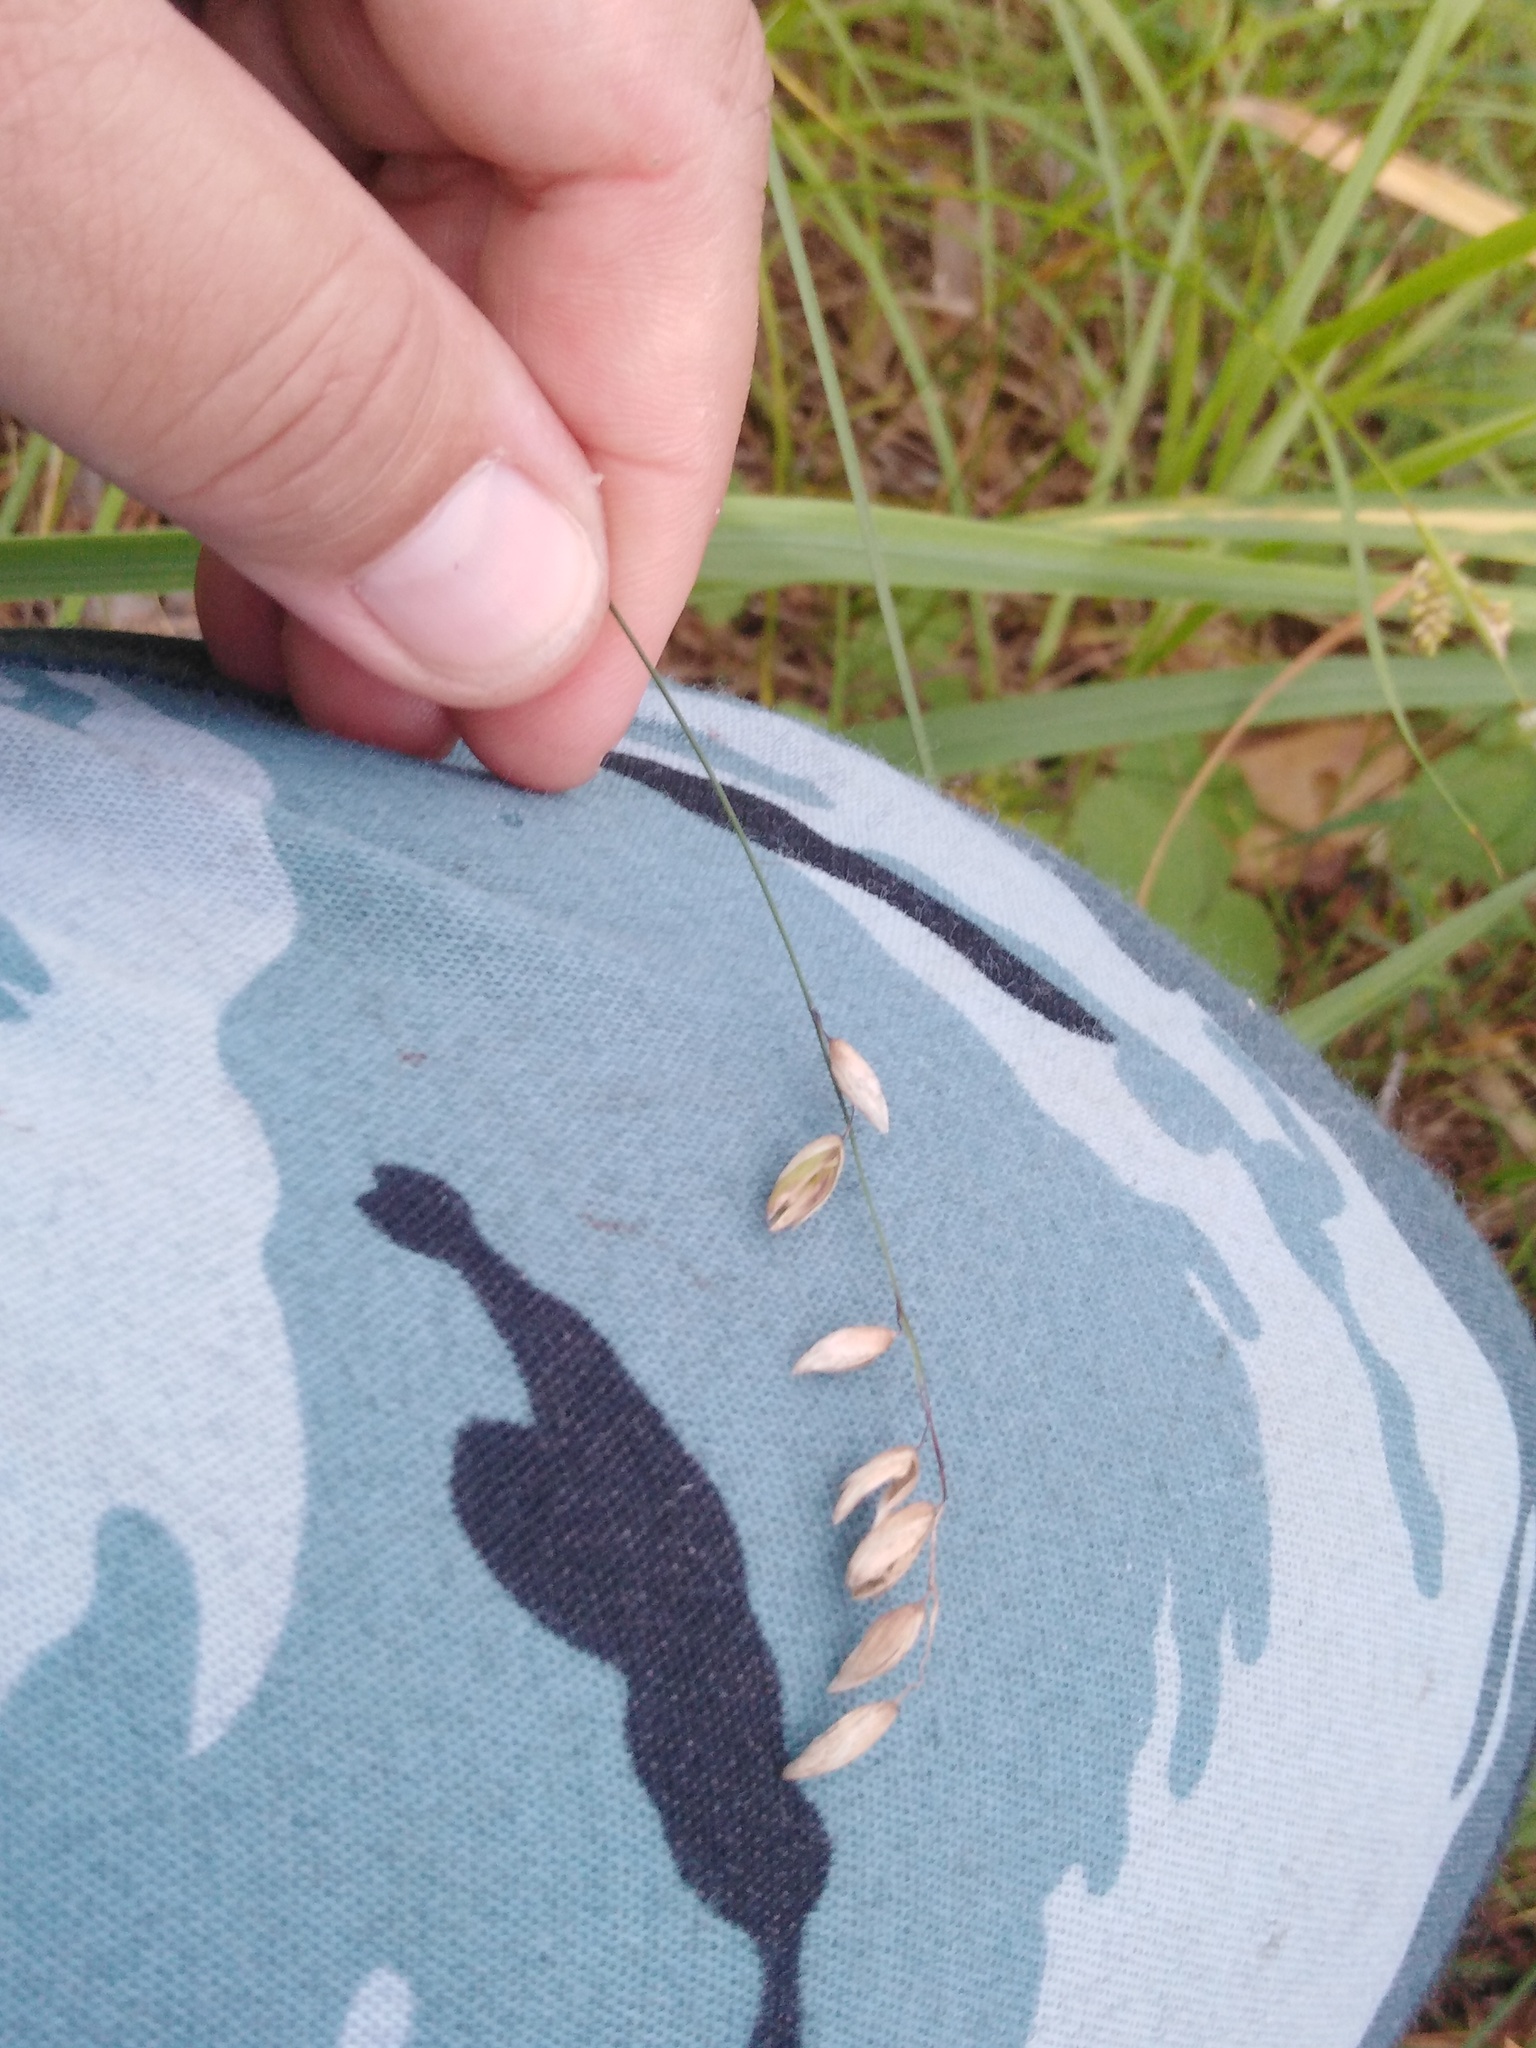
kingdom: Plantae
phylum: Tracheophyta
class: Liliopsida
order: Poales
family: Poaceae
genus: Melica
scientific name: Melica nutans
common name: Mountain melick
